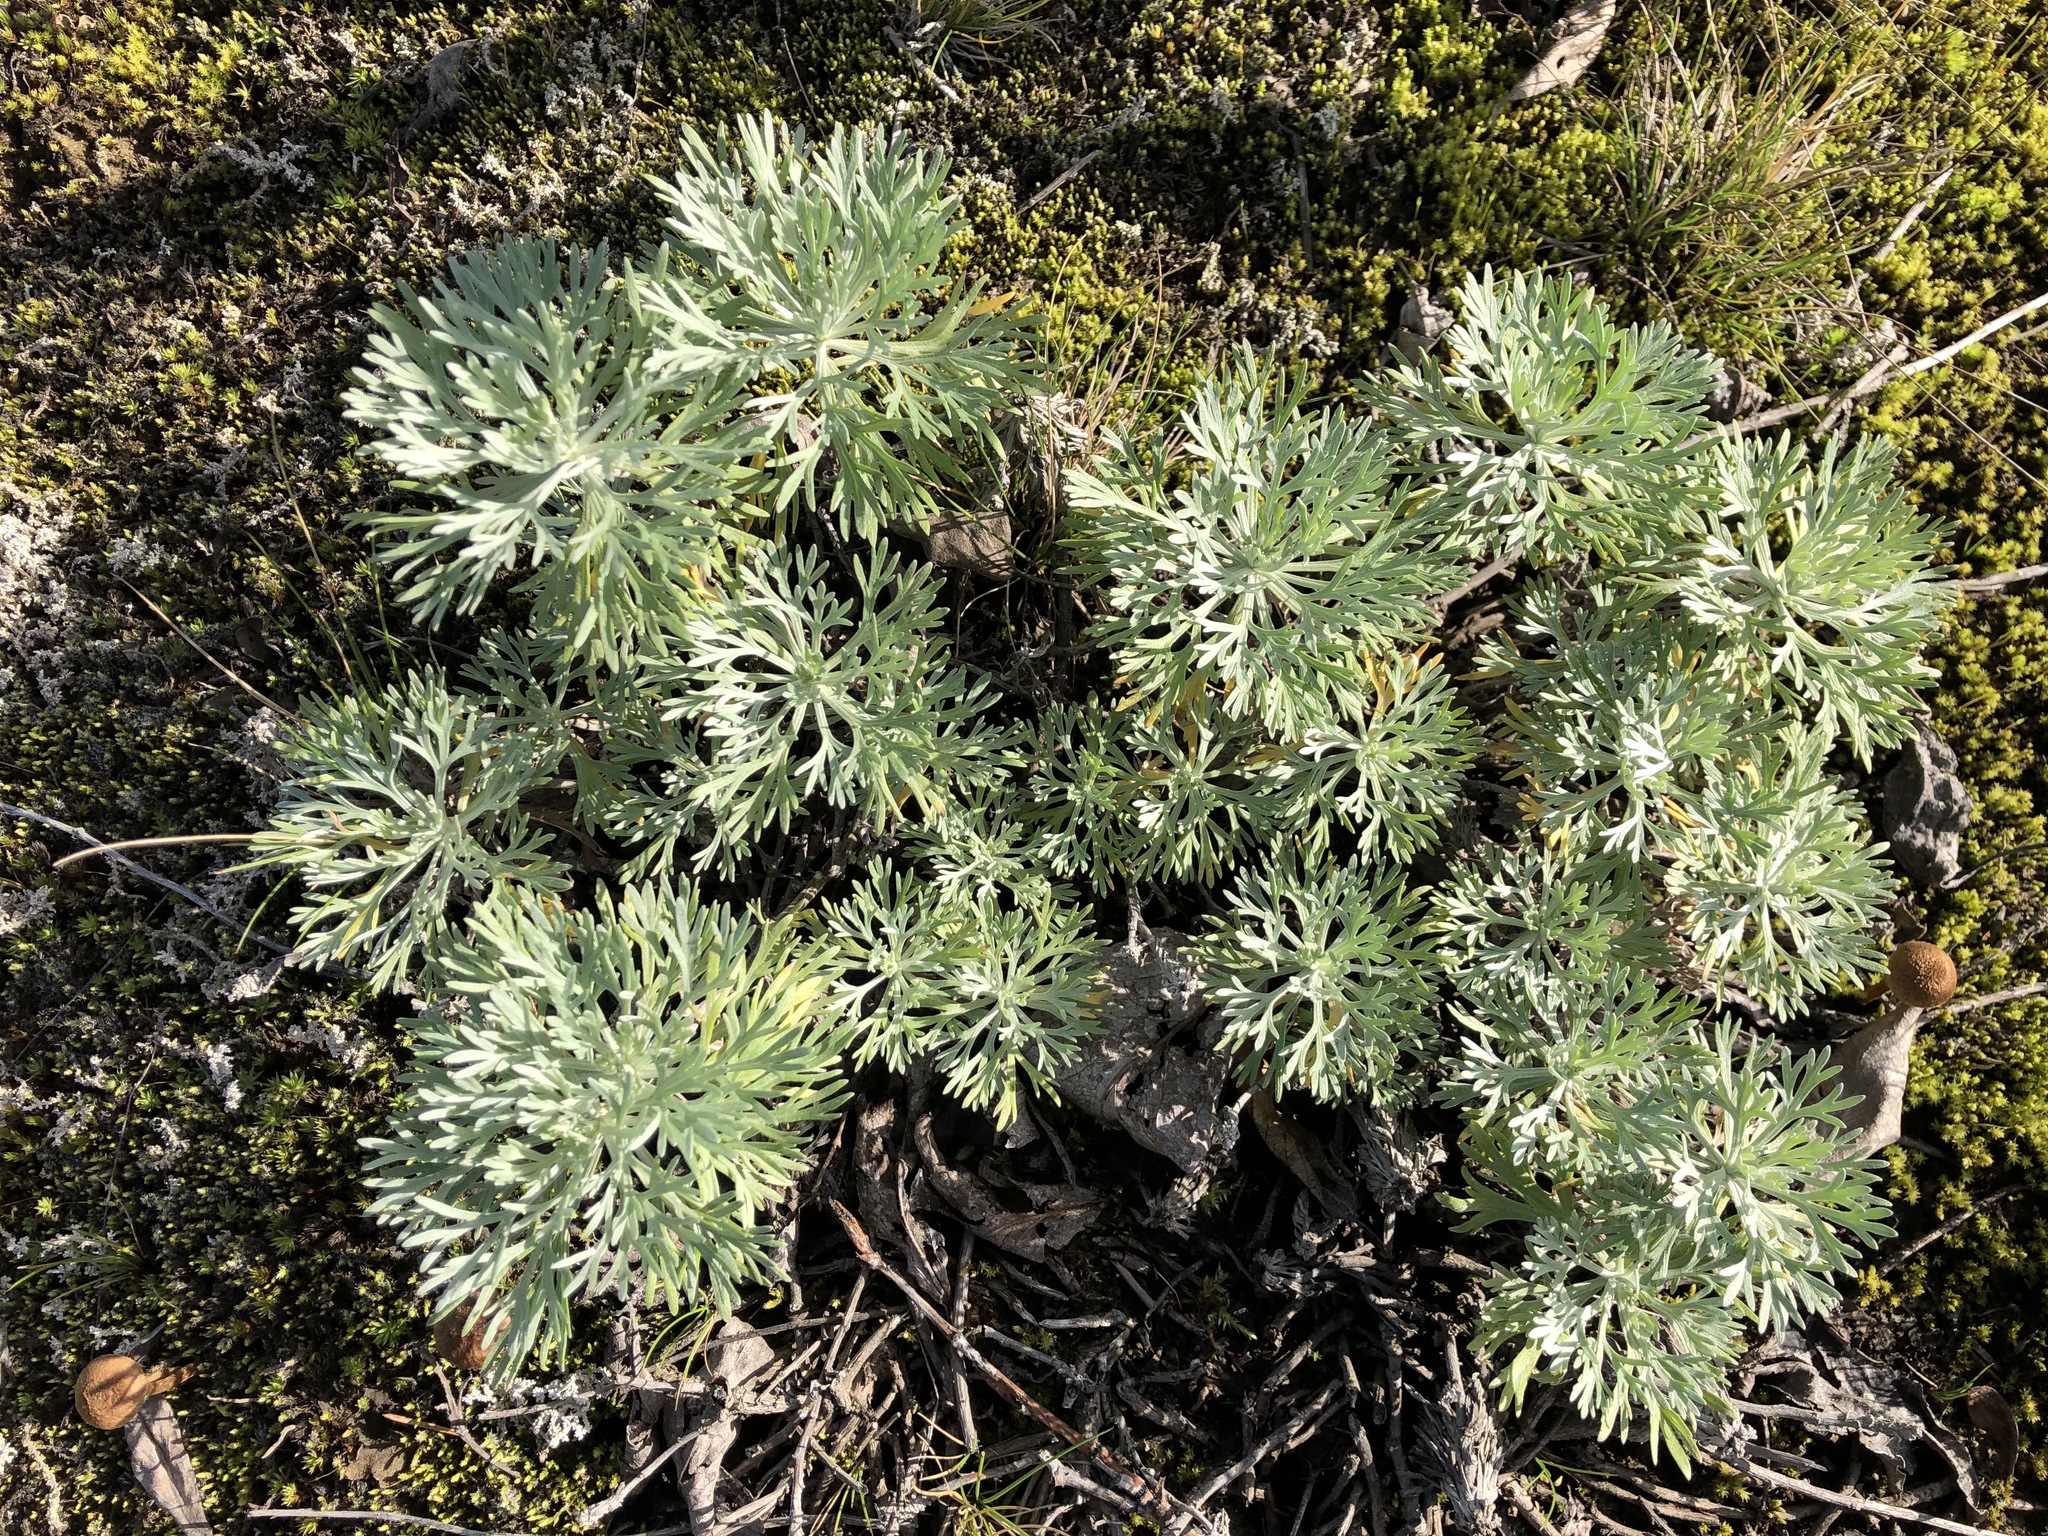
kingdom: Plantae
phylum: Tracheophyta
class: Magnoliopsida
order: Asterales
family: Asteraceae
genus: Artemisia
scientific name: Artemisia kruhsiana
